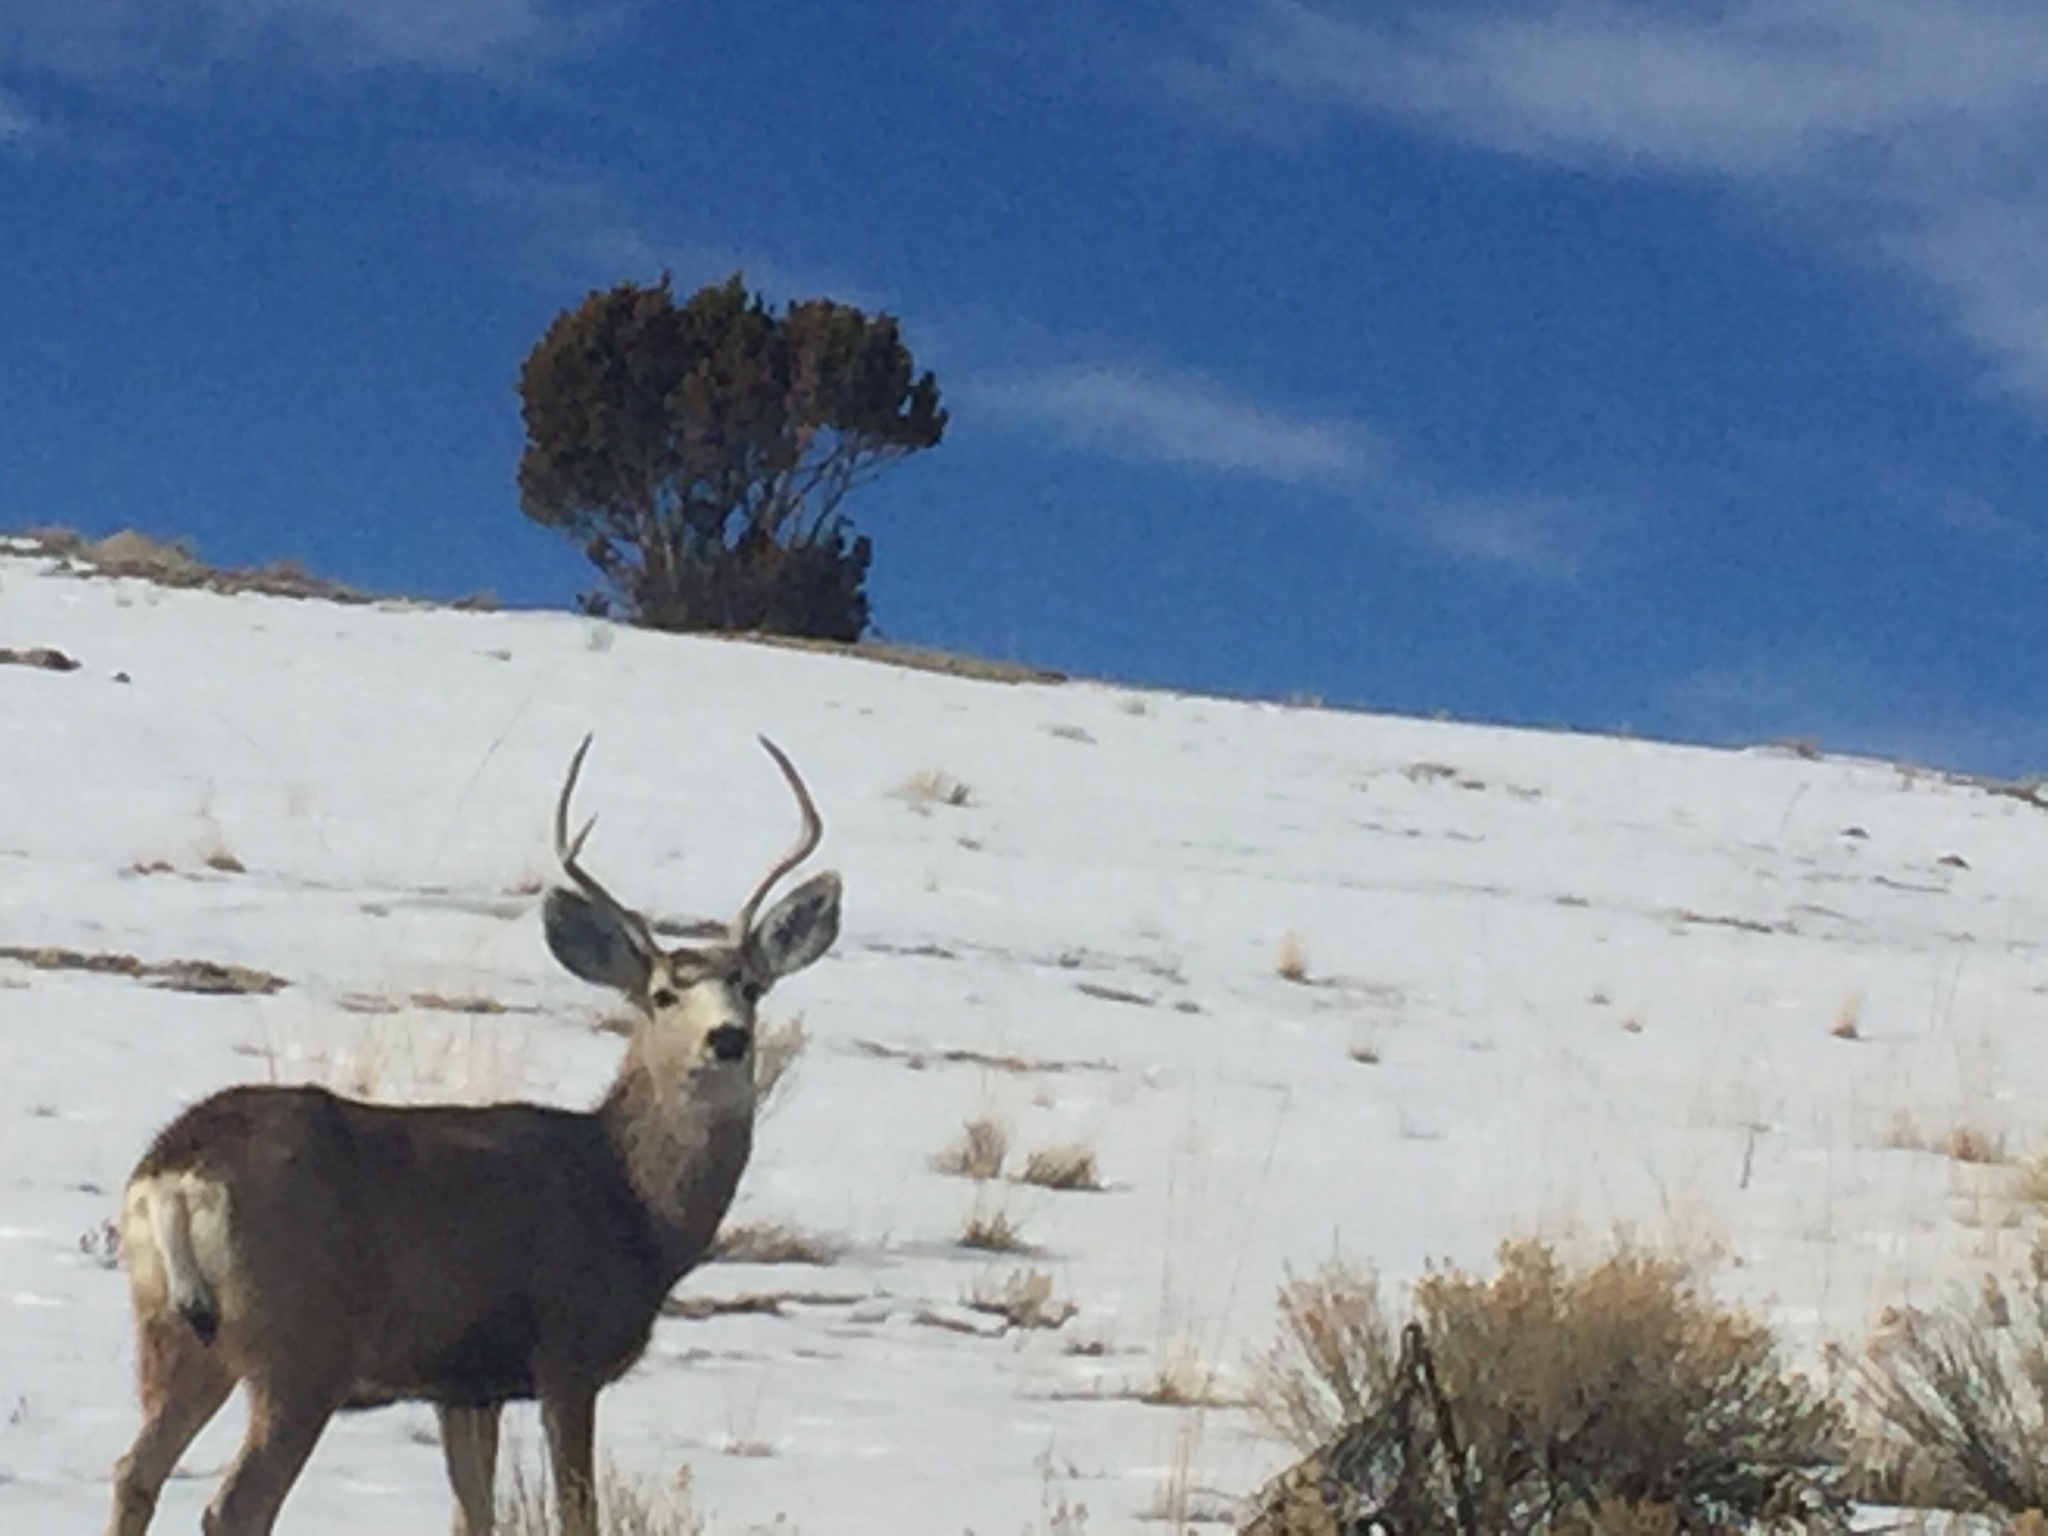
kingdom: Animalia
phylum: Chordata
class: Mammalia
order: Artiodactyla
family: Cervidae
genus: Odocoileus
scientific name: Odocoileus hemionus
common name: Mule deer
